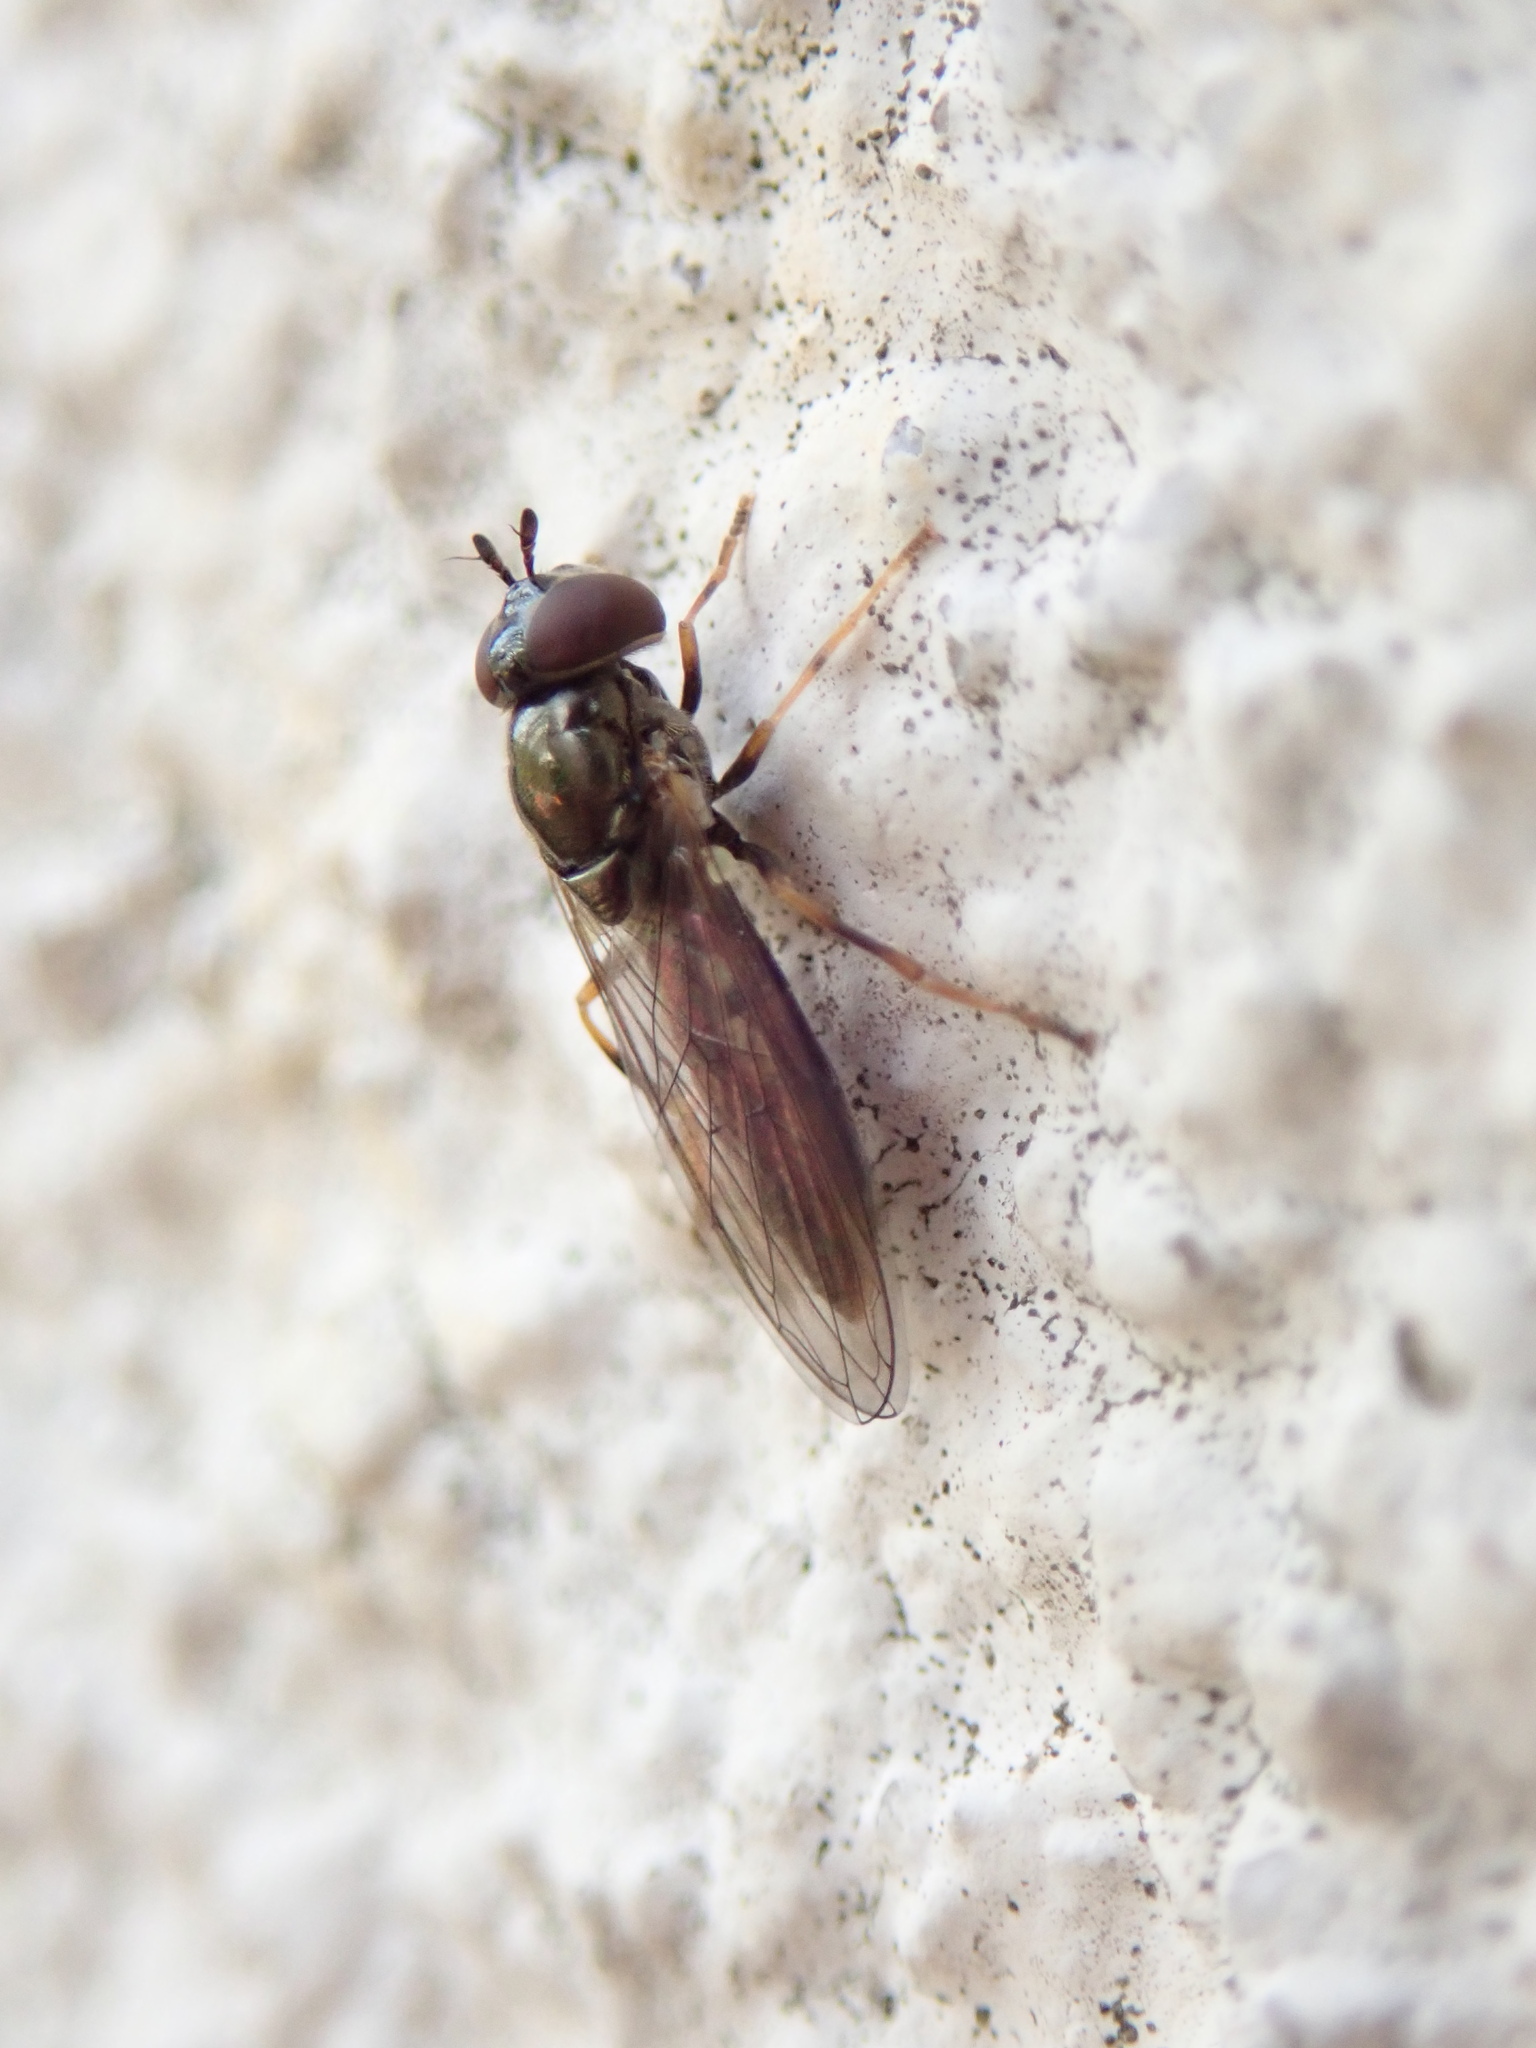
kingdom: Animalia
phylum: Arthropoda
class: Insecta
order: Diptera
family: Syrphidae
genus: Melanostoma
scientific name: Melanostoma mellina
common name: Hover fly
